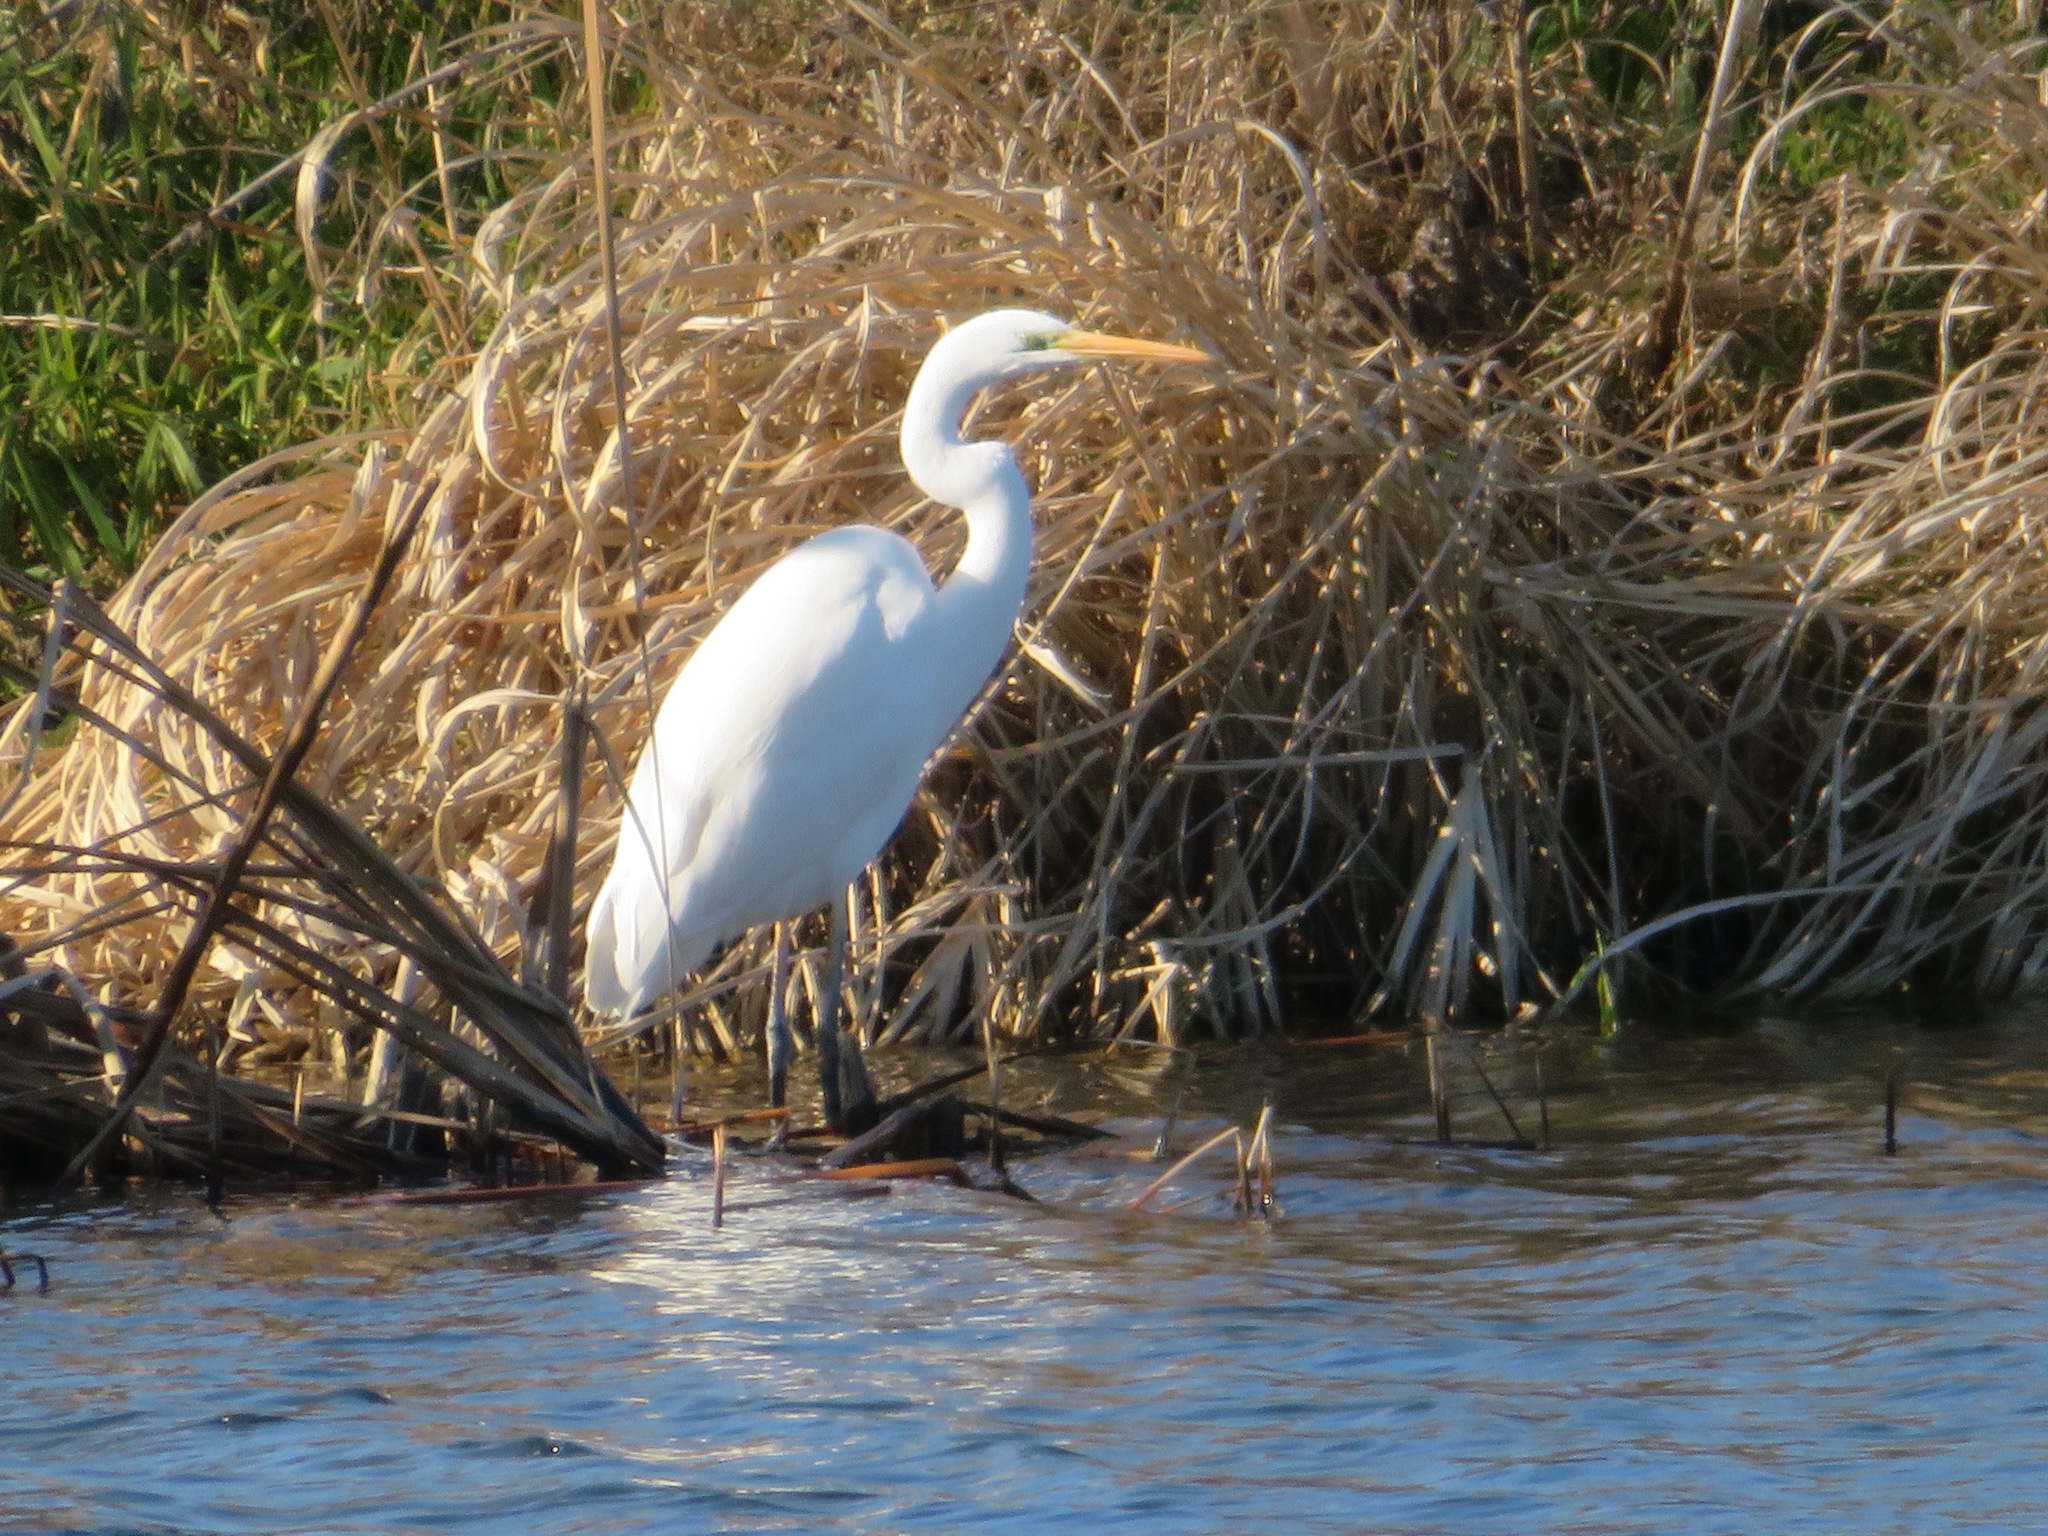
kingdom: Animalia
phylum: Chordata
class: Aves
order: Pelecaniformes
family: Ardeidae
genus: Ardea
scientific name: Ardea alba
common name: Great egret
